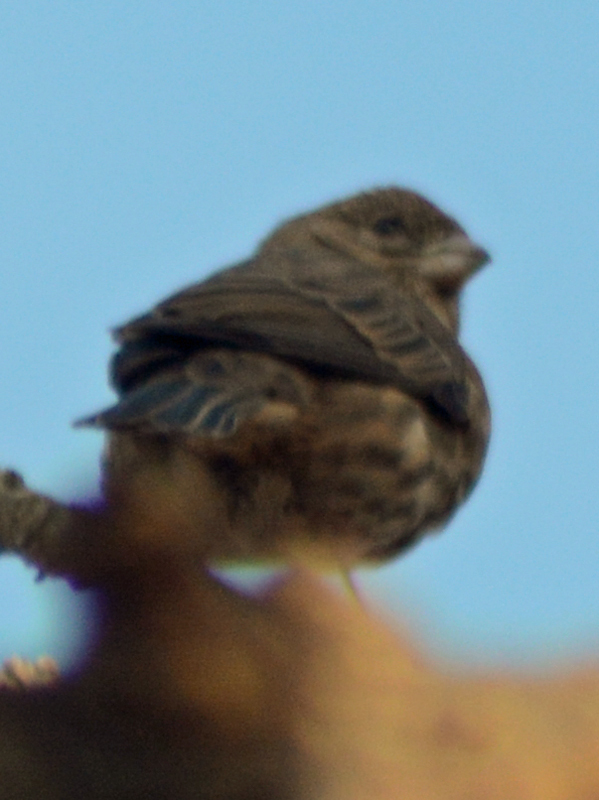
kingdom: Animalia
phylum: Chordata
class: Aves
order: Passeriformes
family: Fringillidae
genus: Haemorhous
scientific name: Haemorhous mexicanus
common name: House finch
